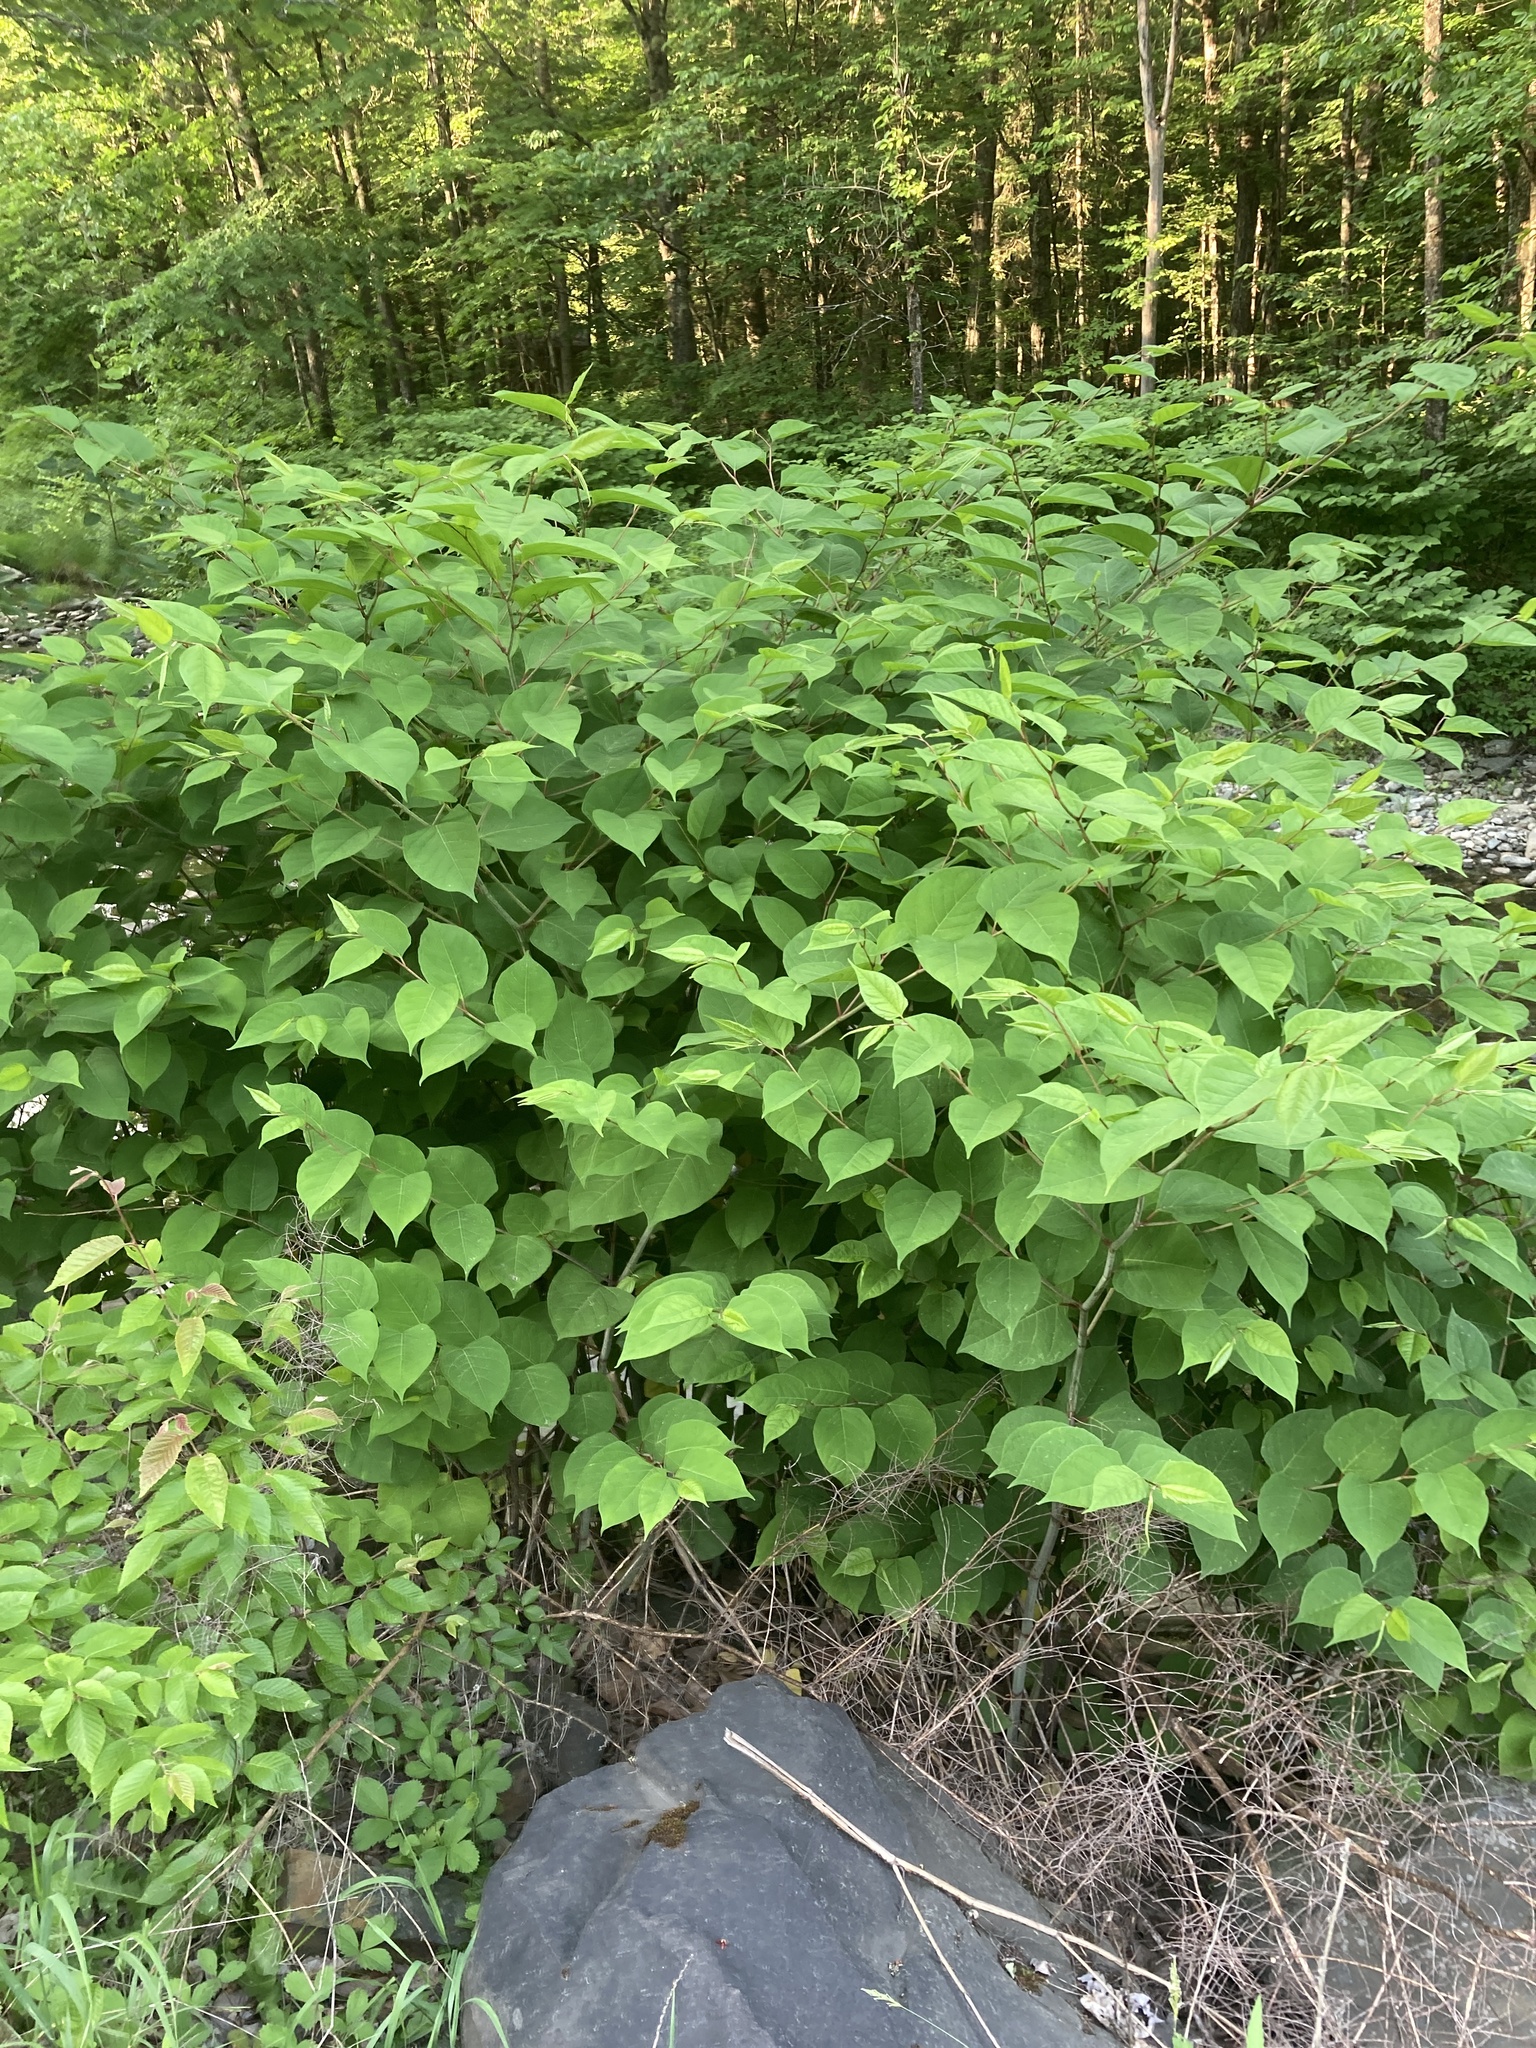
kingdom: Plantae
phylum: Tracheophyta
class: Magnoliopsida
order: Caryophyllales
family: Polygonaceae
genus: Reynoutria
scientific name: Reynoutria japonica
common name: Japanese knotweed
